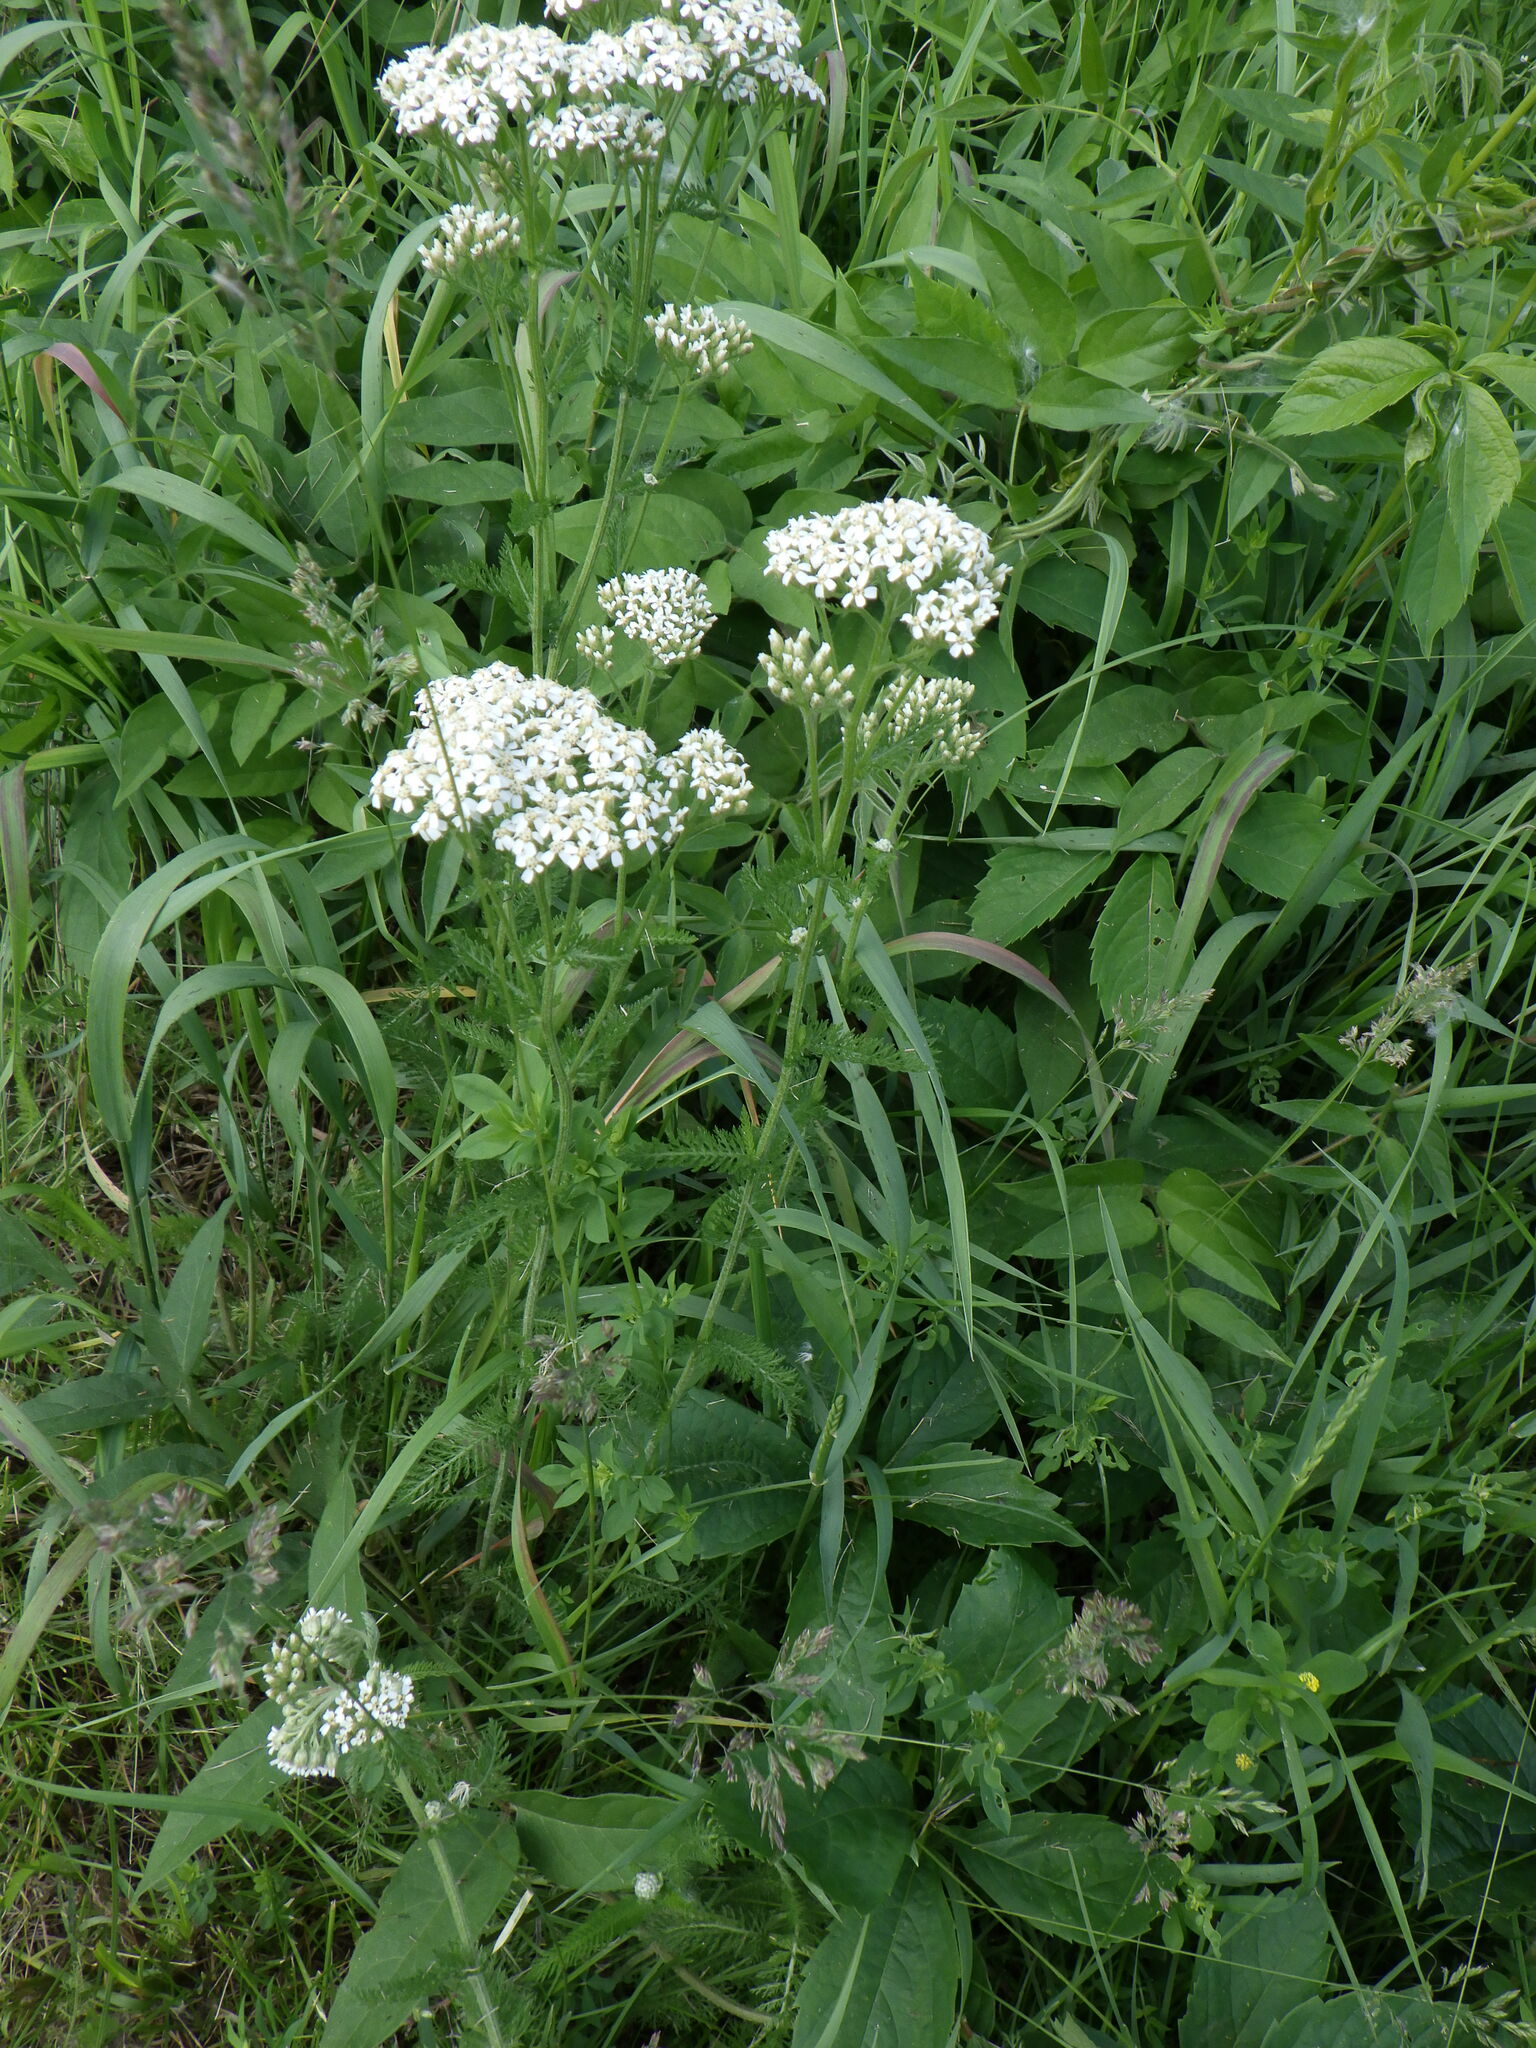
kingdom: Plantae
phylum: Tracheophyta
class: Magnoliopsida
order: Asterales
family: Asteraceae
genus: Achillea
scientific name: Achillea millefolium
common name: Yarrow
